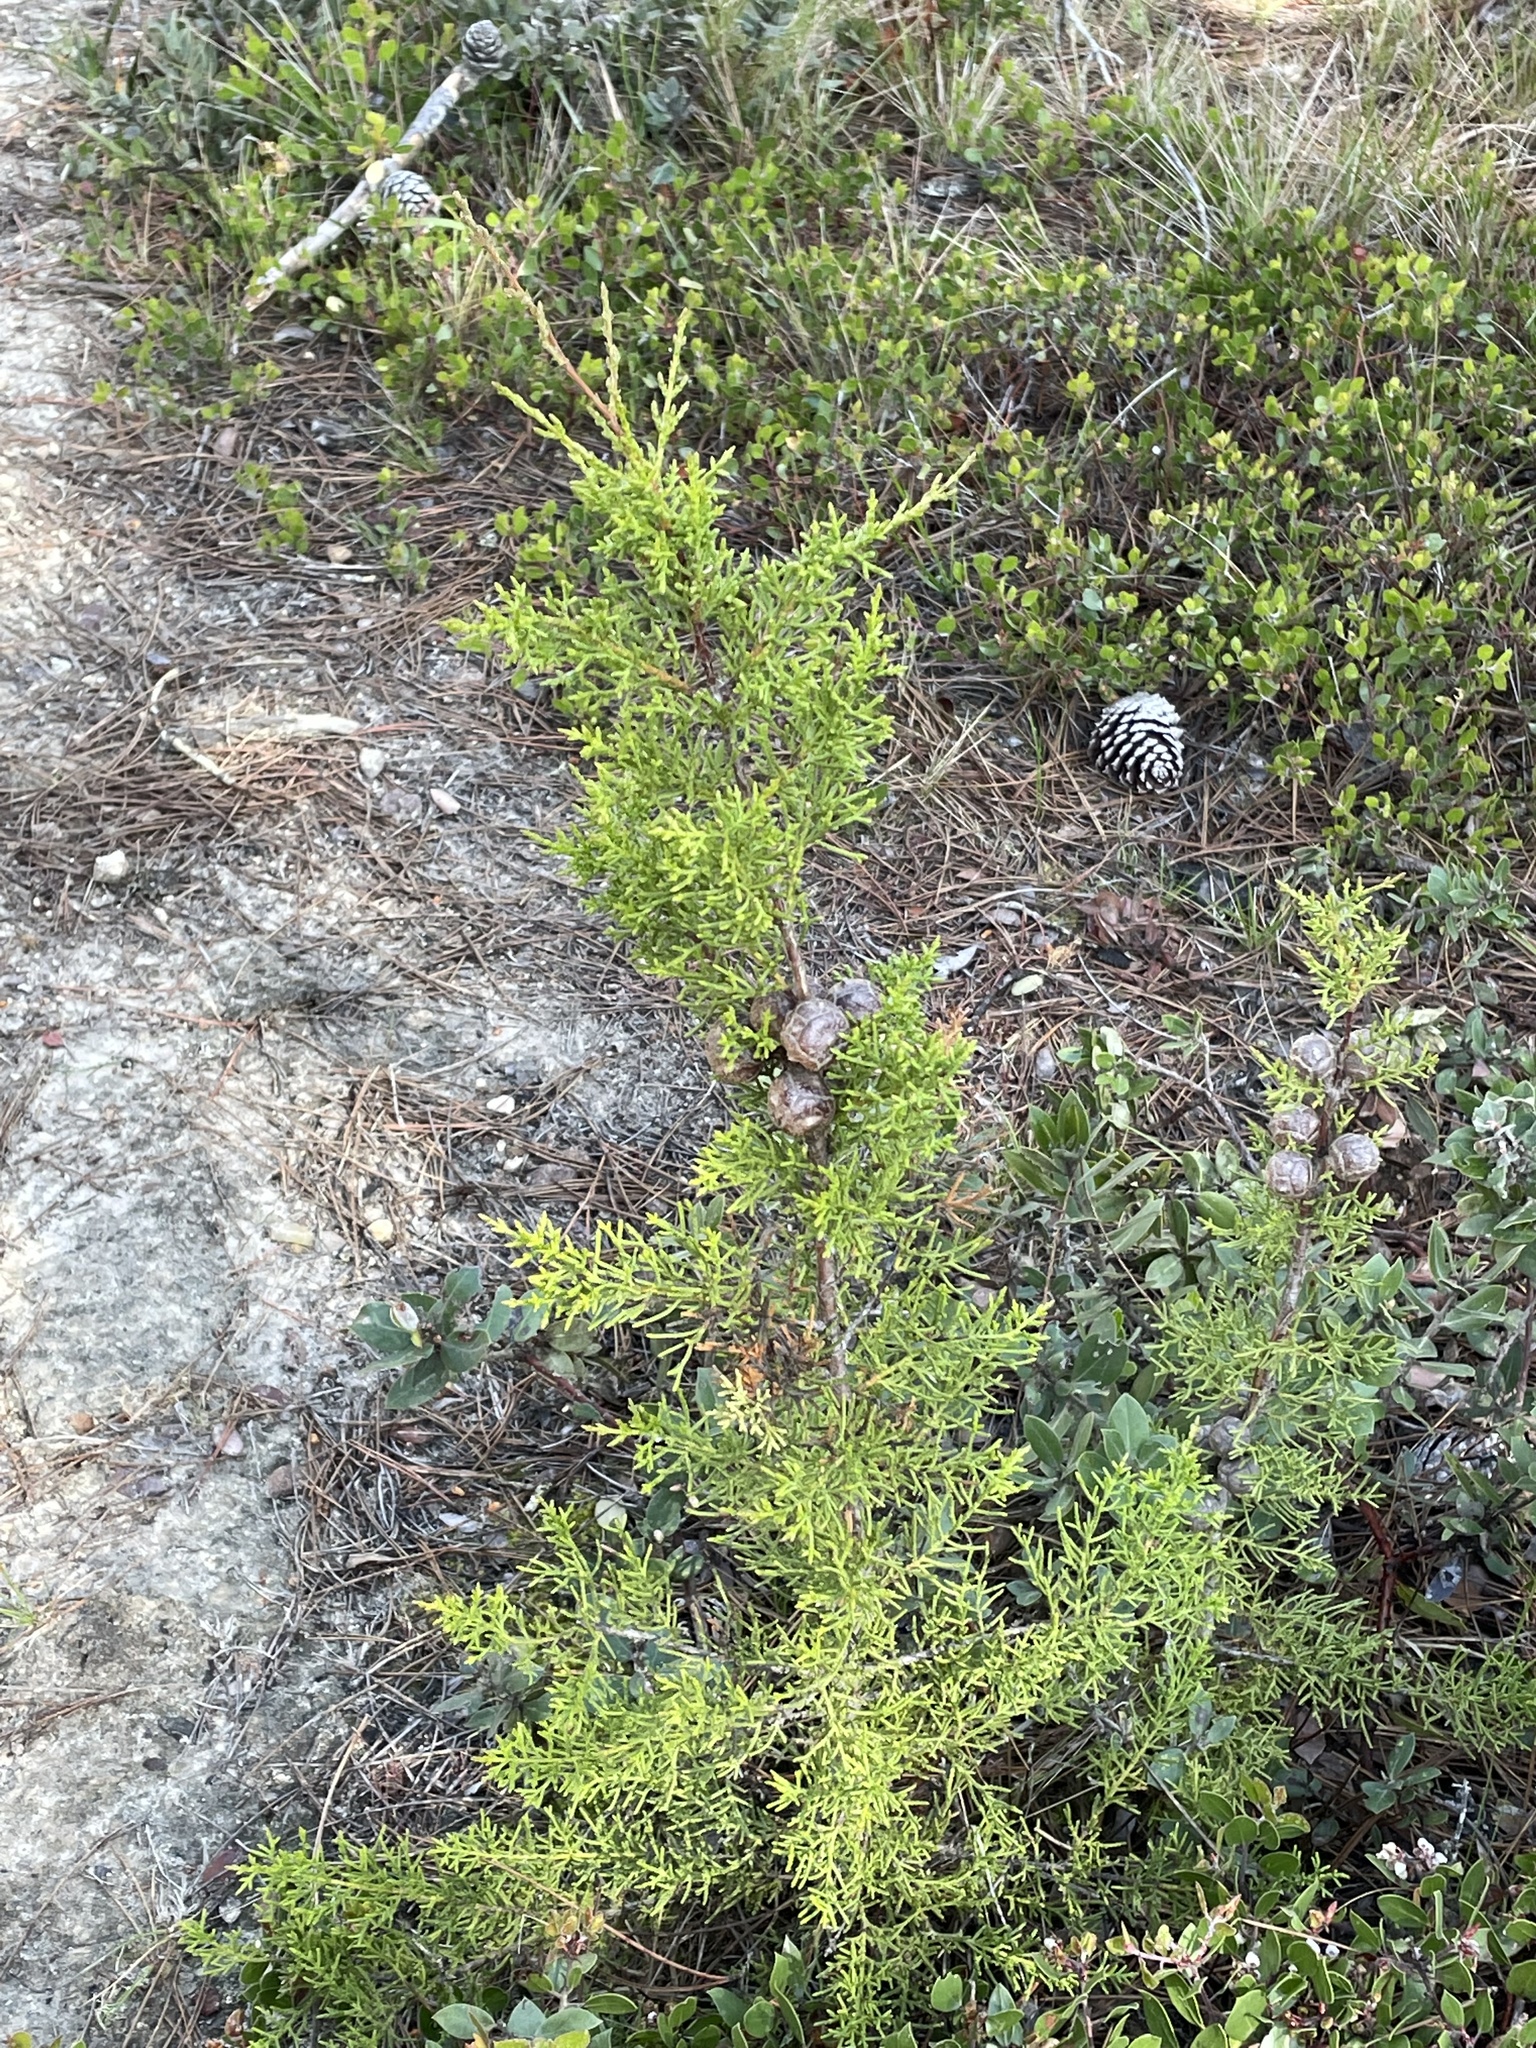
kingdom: Plantae
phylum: Tracheophyta
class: Pinopsida
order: Pinales
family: Cupressaceae
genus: Cupressus
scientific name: Cupressus goveniana
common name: Gowen cypress
